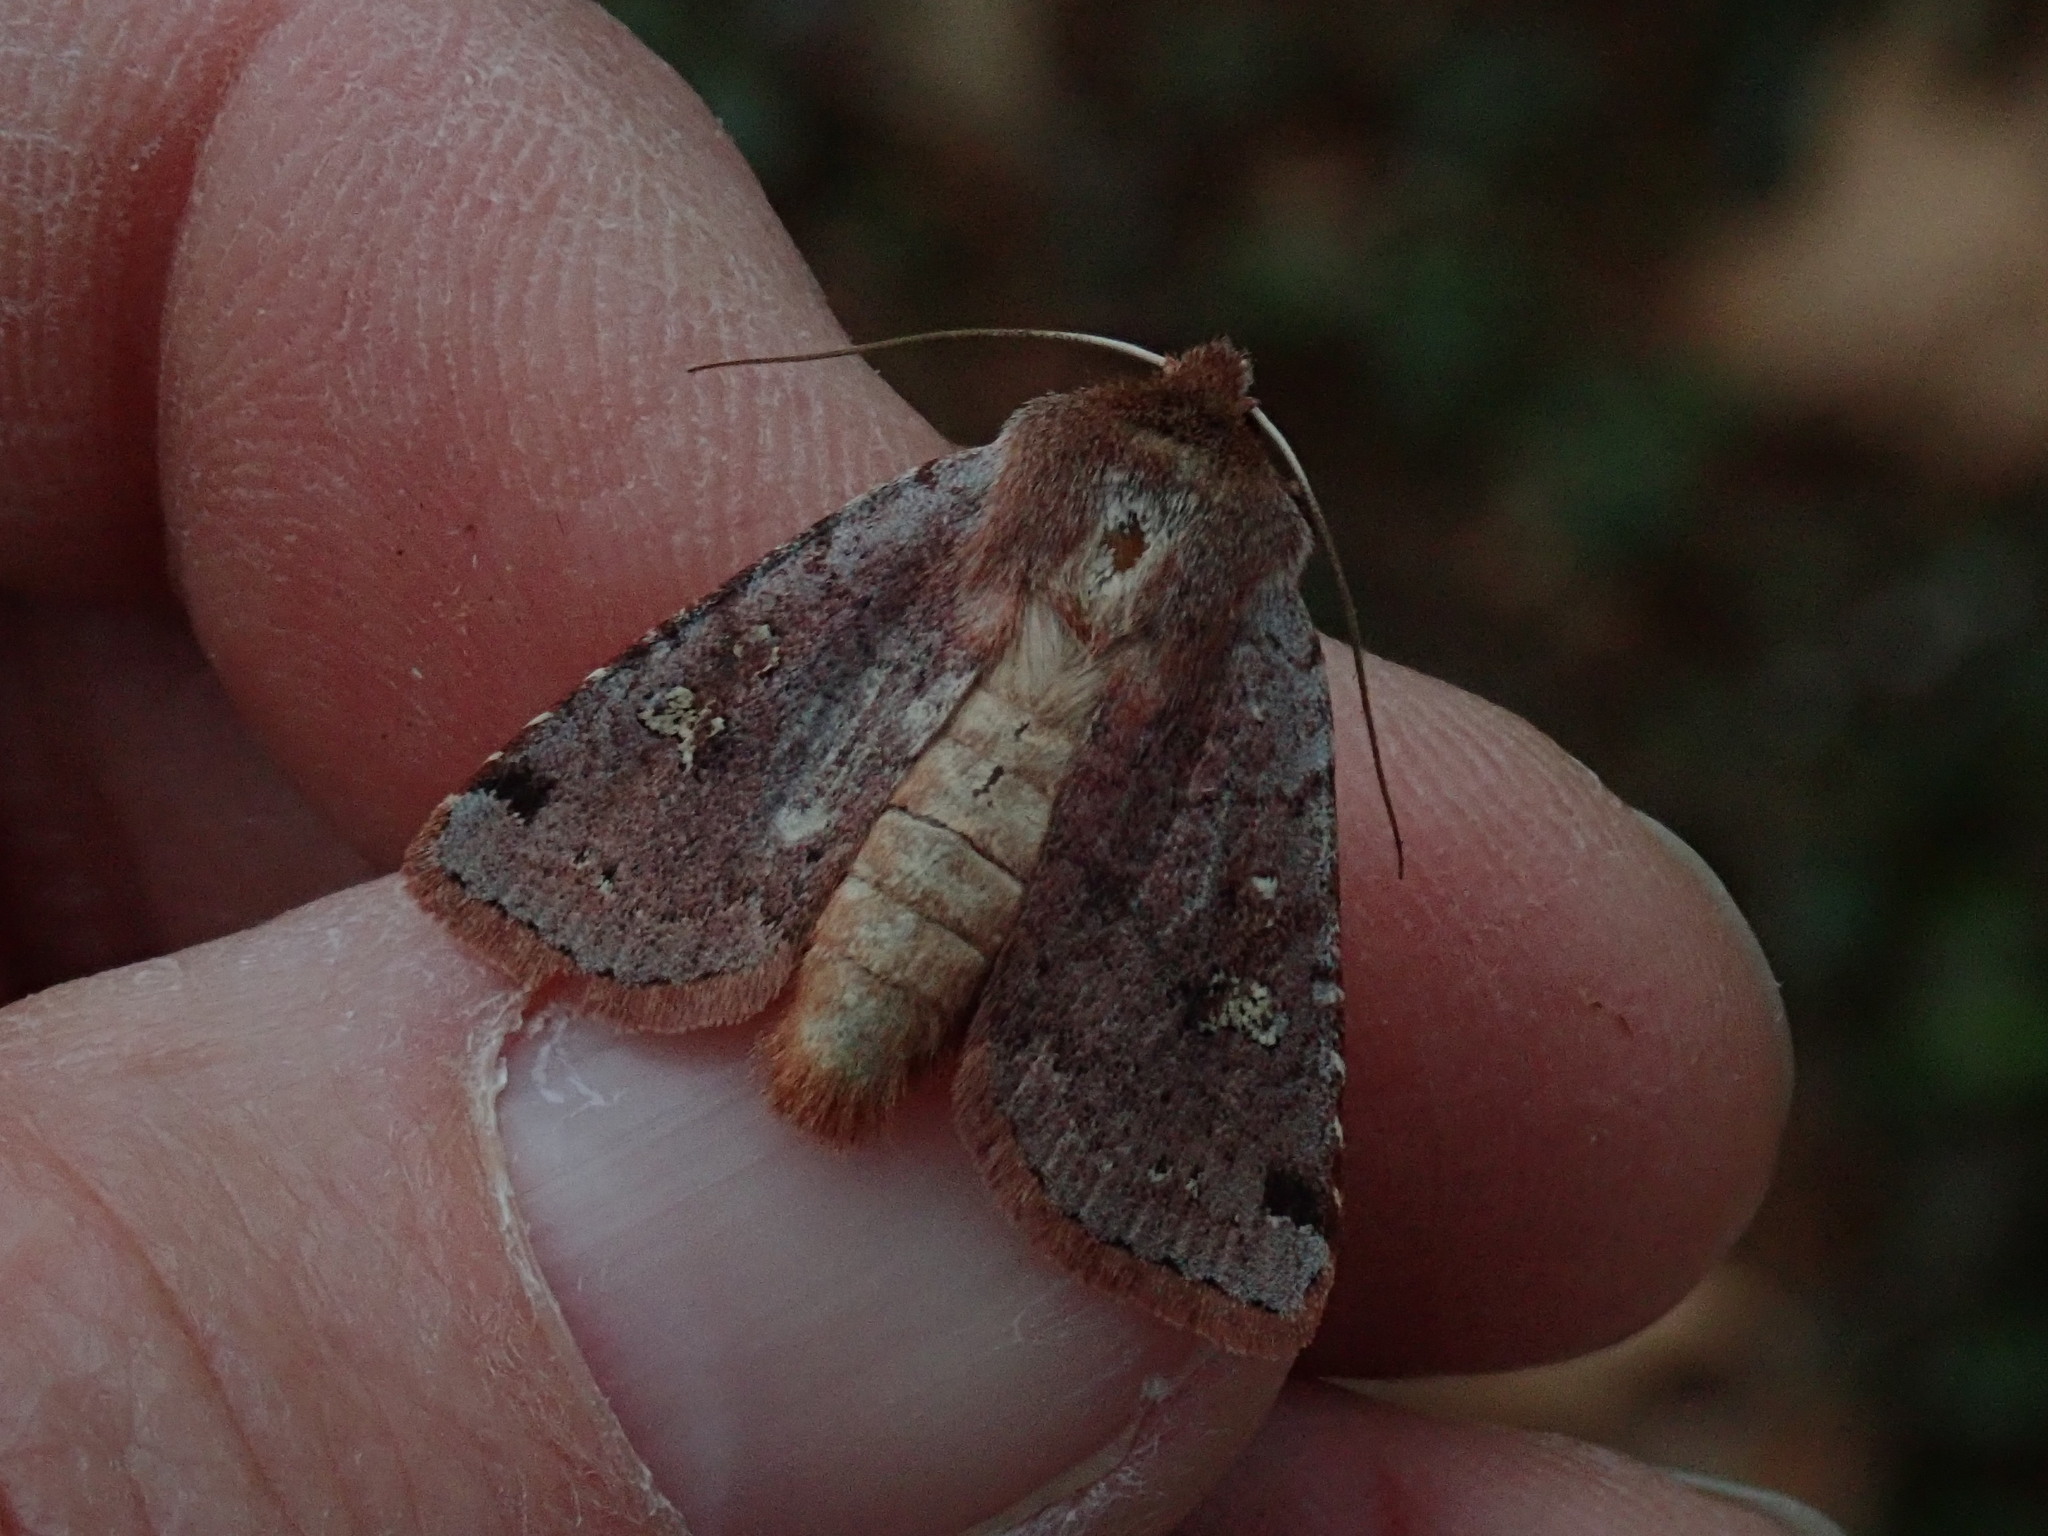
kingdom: Animalia
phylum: Arthropoda
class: Insecta
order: Lepidoptera
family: Noctuidae
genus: Cerastis
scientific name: Cerastis fishii
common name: Fish's dart
